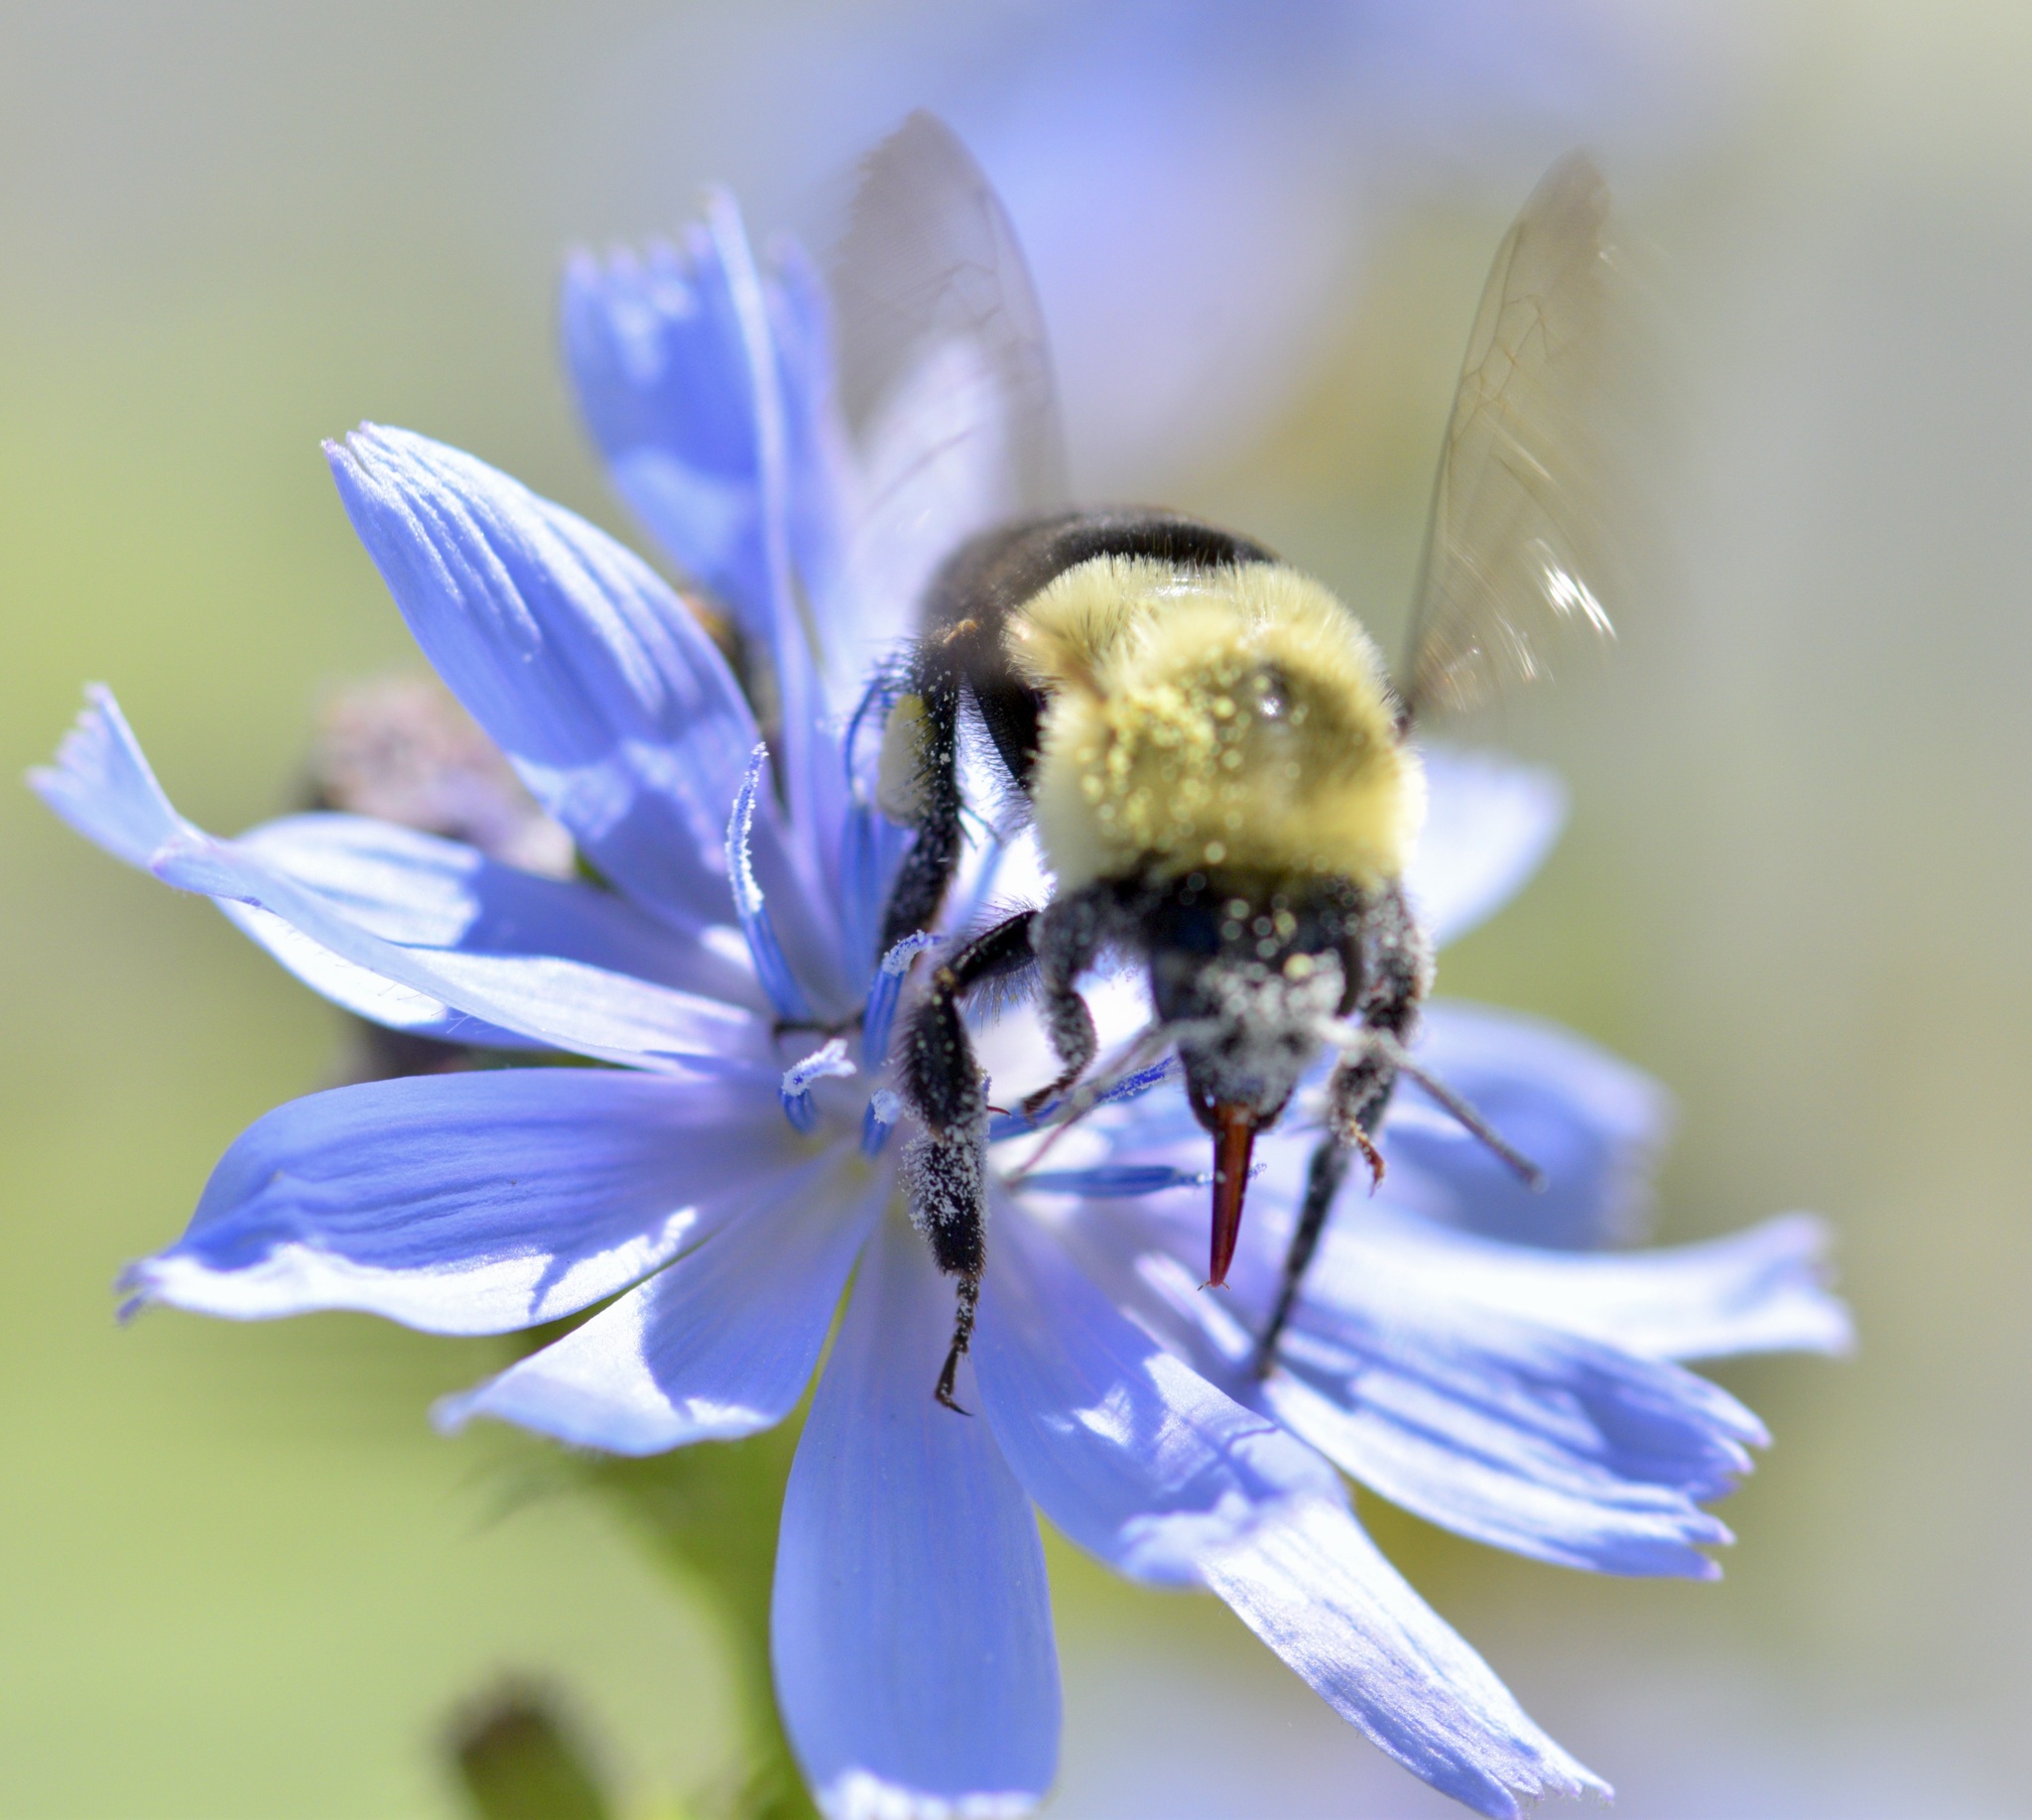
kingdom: Animalia
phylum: Arthropoda
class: Insecta
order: Hymenoptera
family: Apidae
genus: Bombus
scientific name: Bombus impatiens
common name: Common eastern bumble bee
